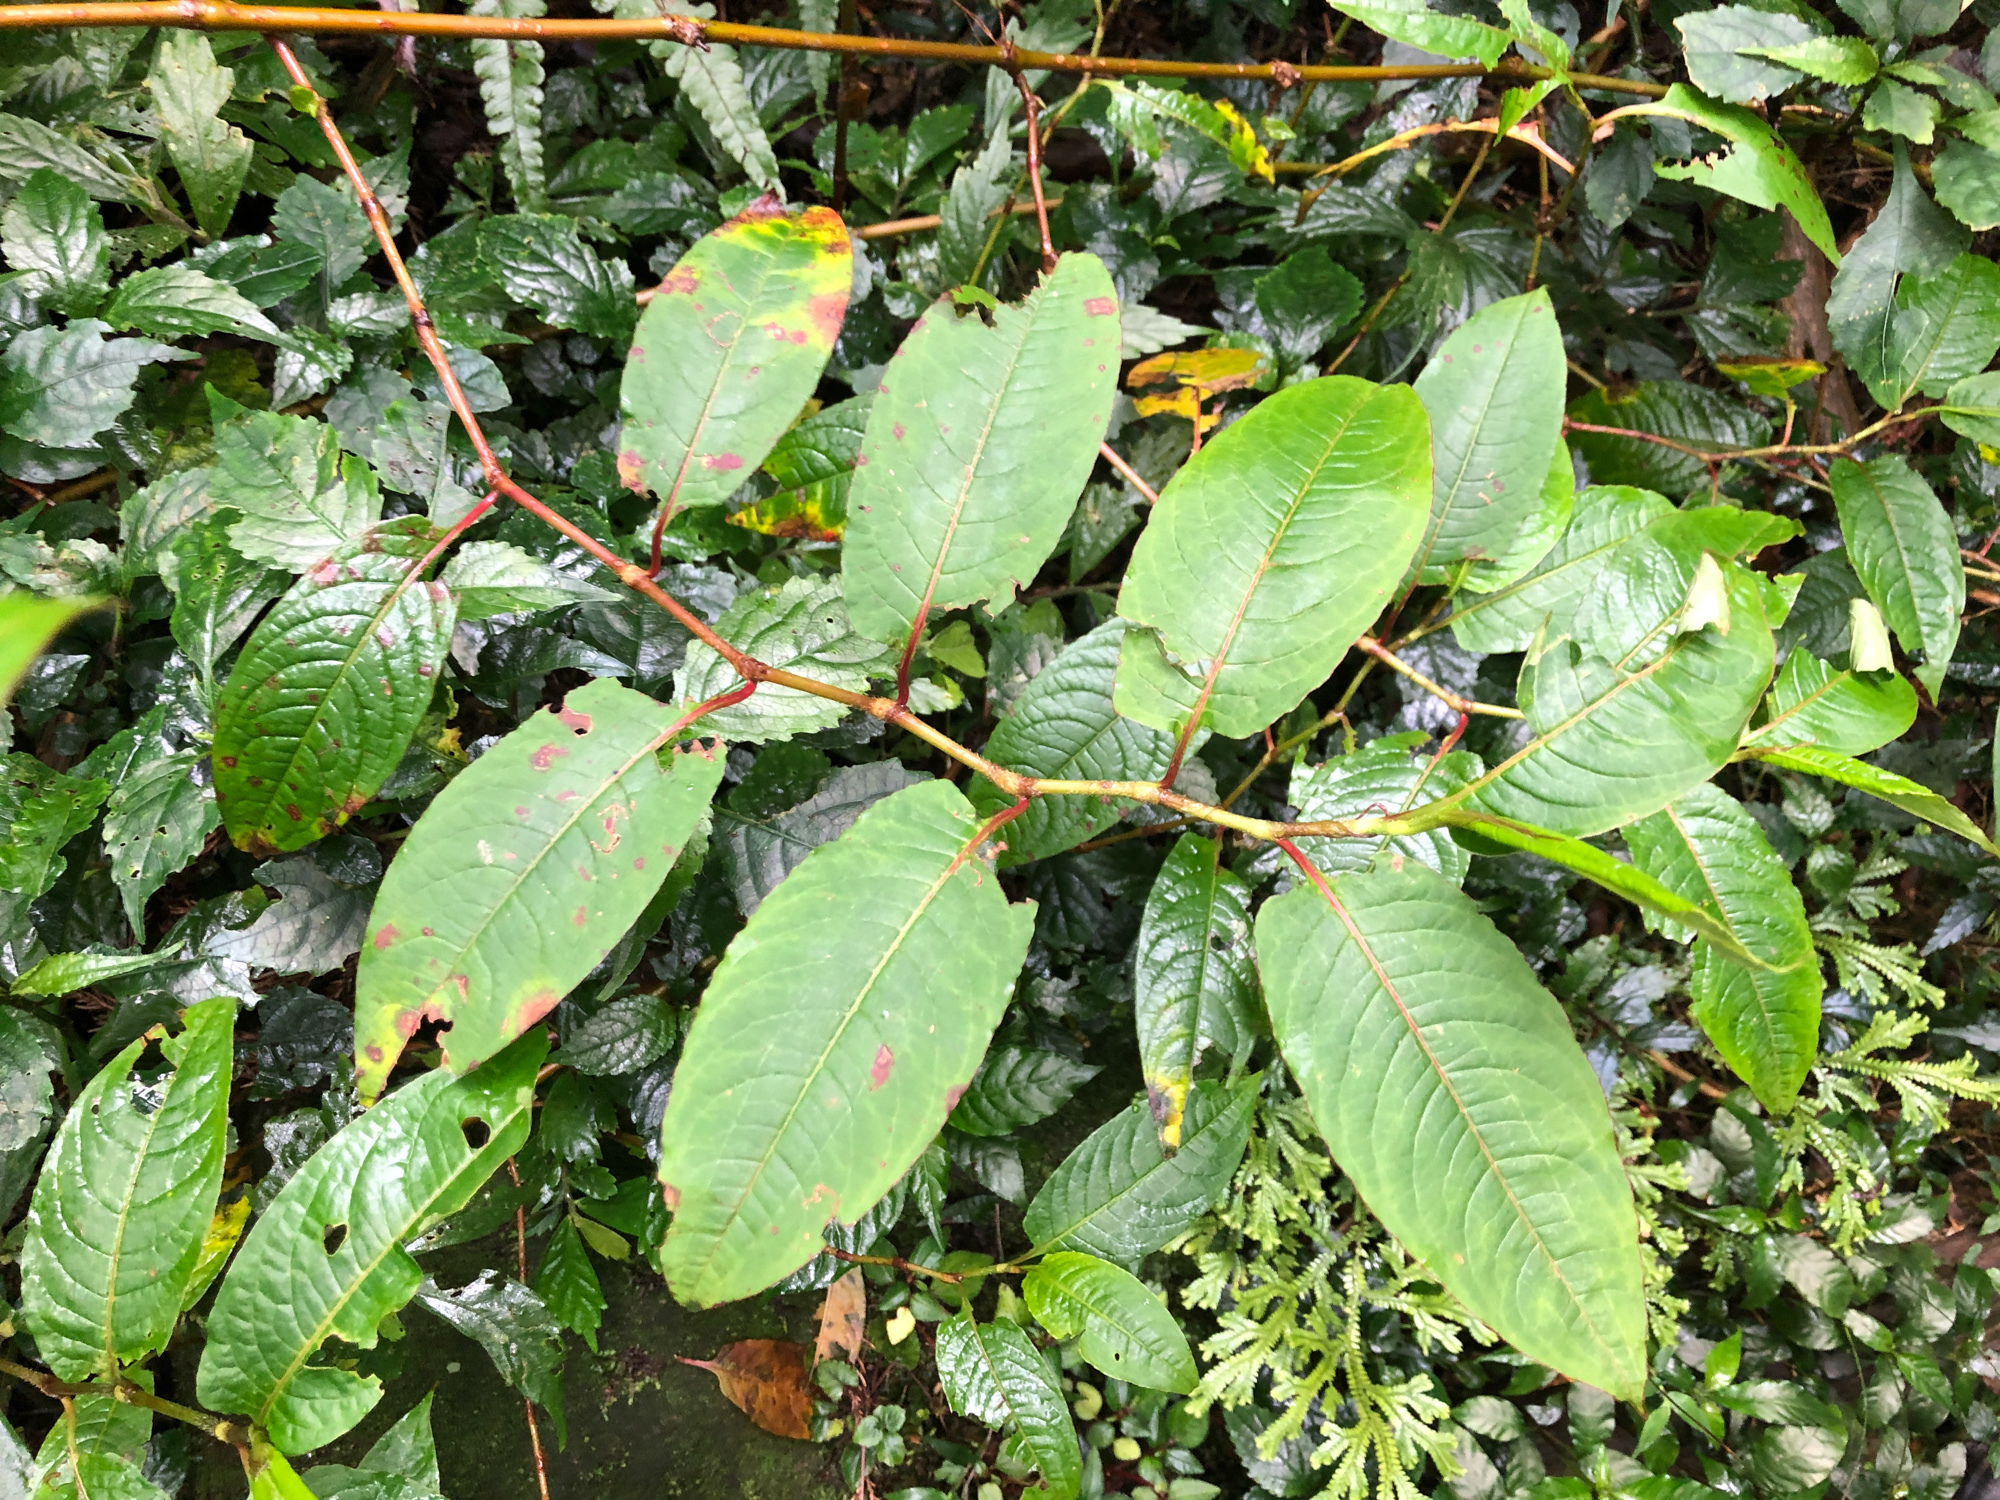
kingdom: Plantae
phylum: Tracheophyta
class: Magnoliopsida
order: Caryophyllales
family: Polygonaceae
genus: Persicaria
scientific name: Persicaria chinensis
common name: Chinese knotweed
